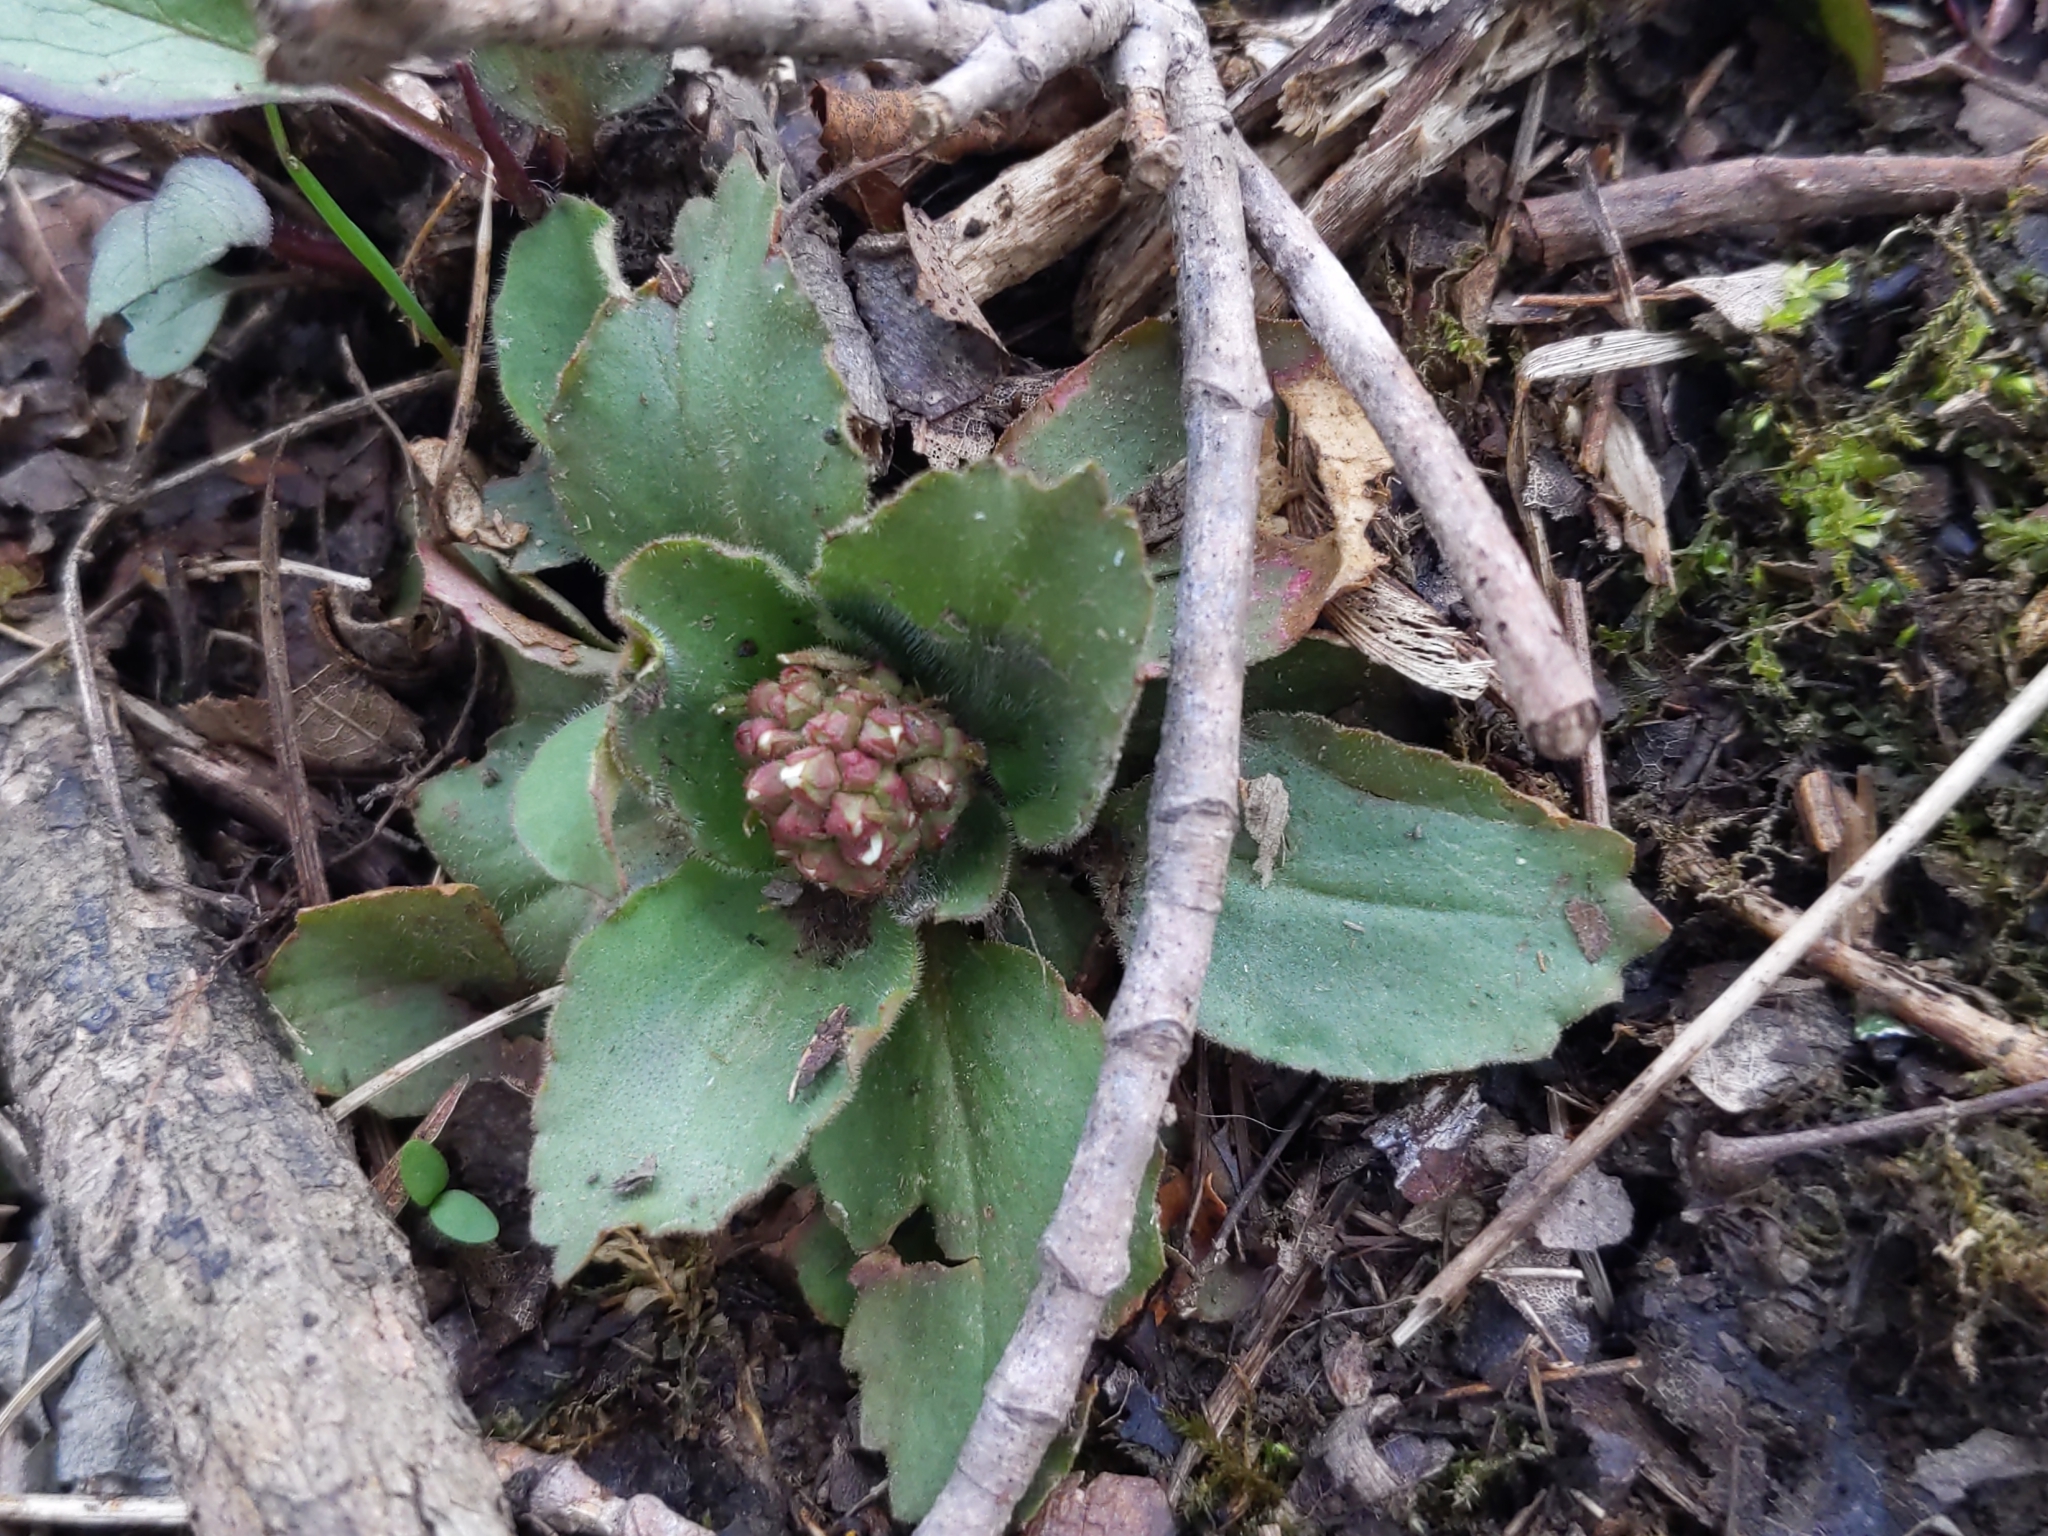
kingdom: Plantae
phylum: Tracheophyta
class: Magnoliopsida
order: Saxifragales
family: Saxifragaceae
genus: Micranthes
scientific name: Micranthes virginiensis
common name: Early saxifrage
